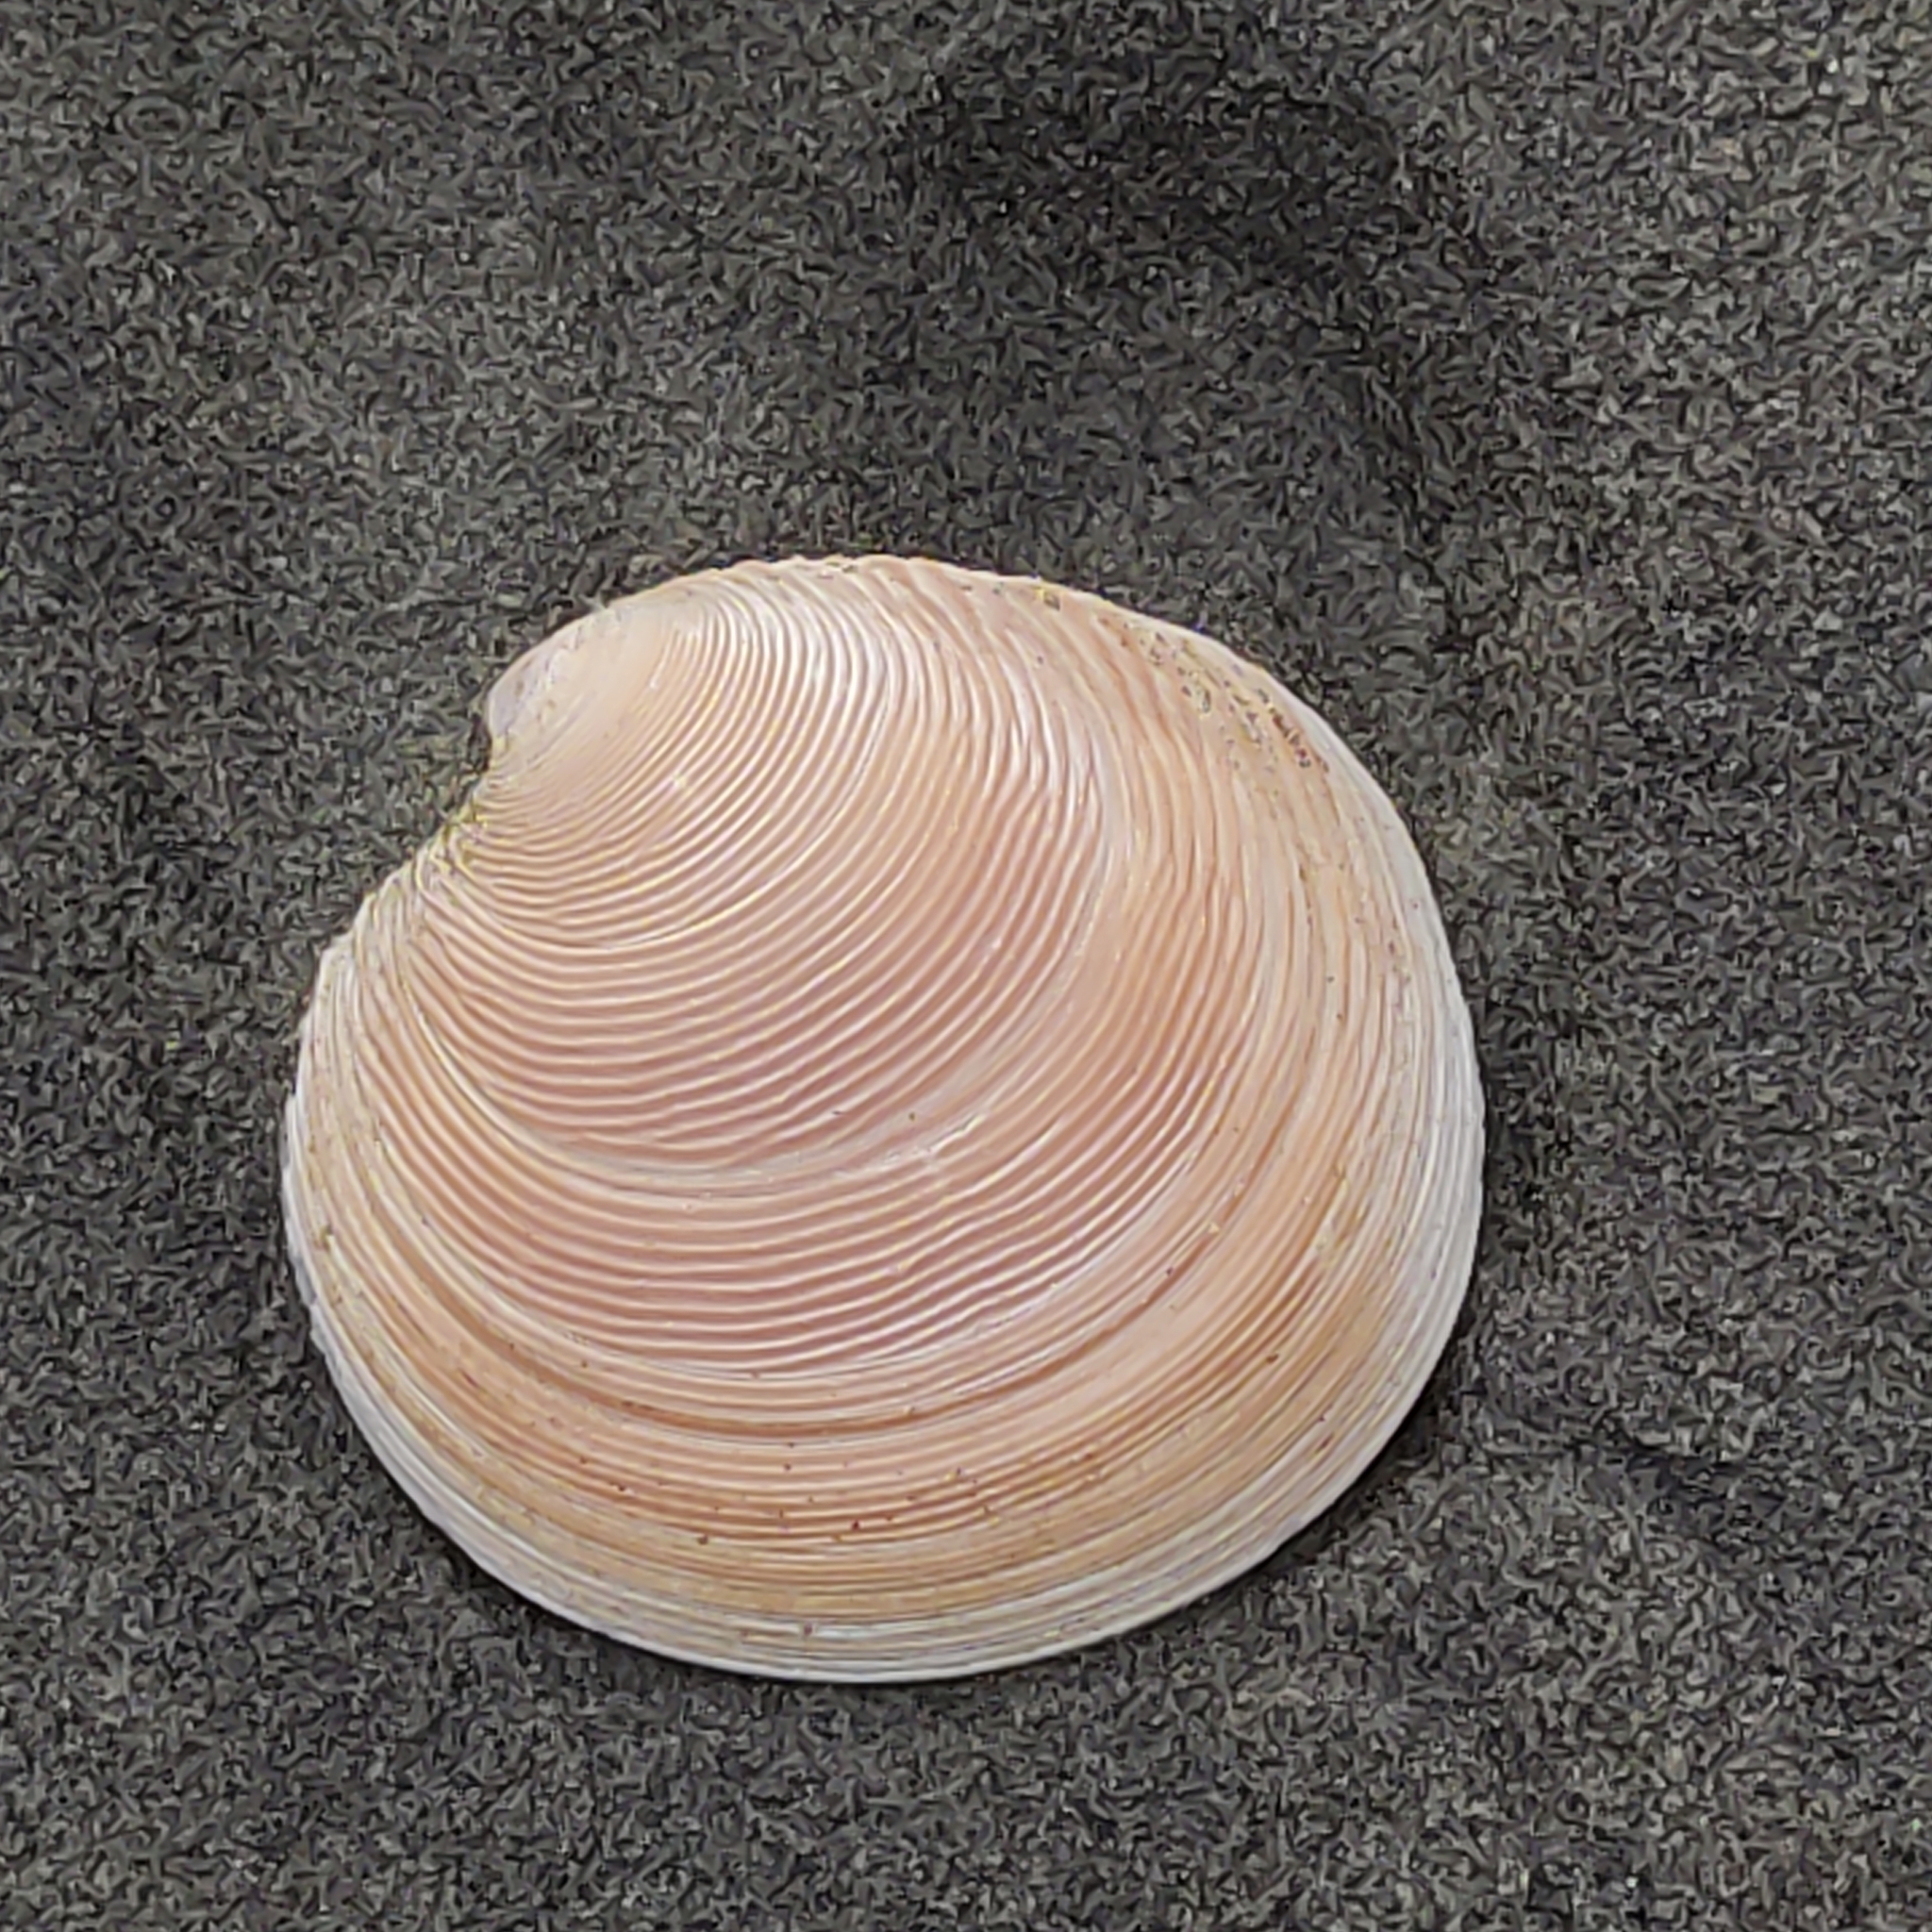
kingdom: Animalia
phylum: Mollusca
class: Bivalvia
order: Venerida
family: Veneridae
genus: Dosinia
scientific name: Dosinia anus
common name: Old-woman dosinia
